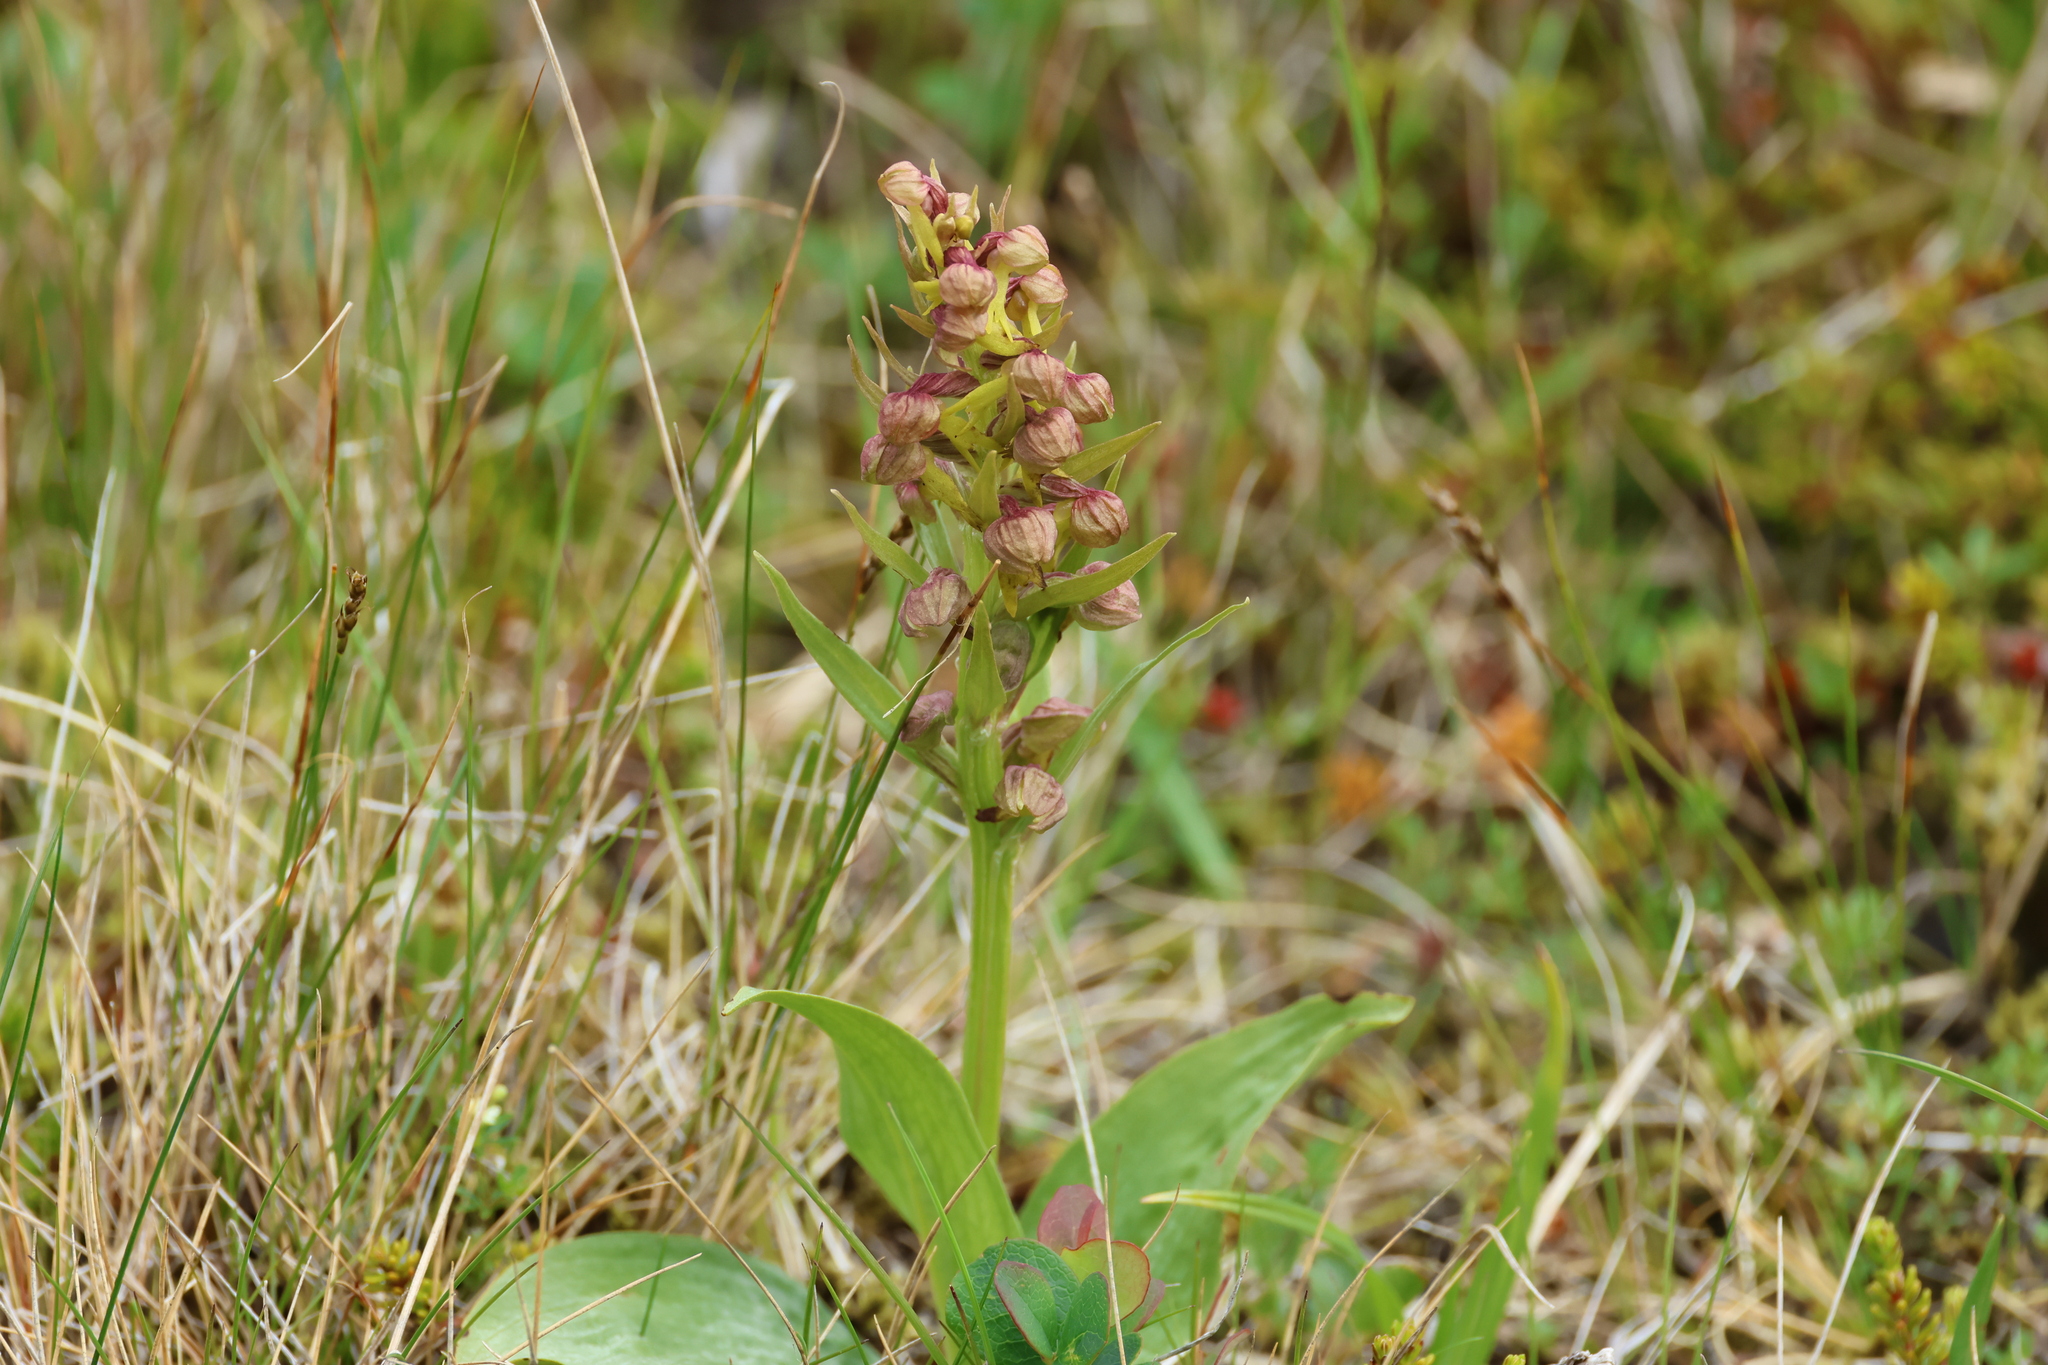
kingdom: Plantae
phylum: Tracheophyta
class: Liliopsida
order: Asparagales
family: Orchidaceae
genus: Dactylorhiza
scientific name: Dactylorhiza viridis
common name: Longbract frog orchid
